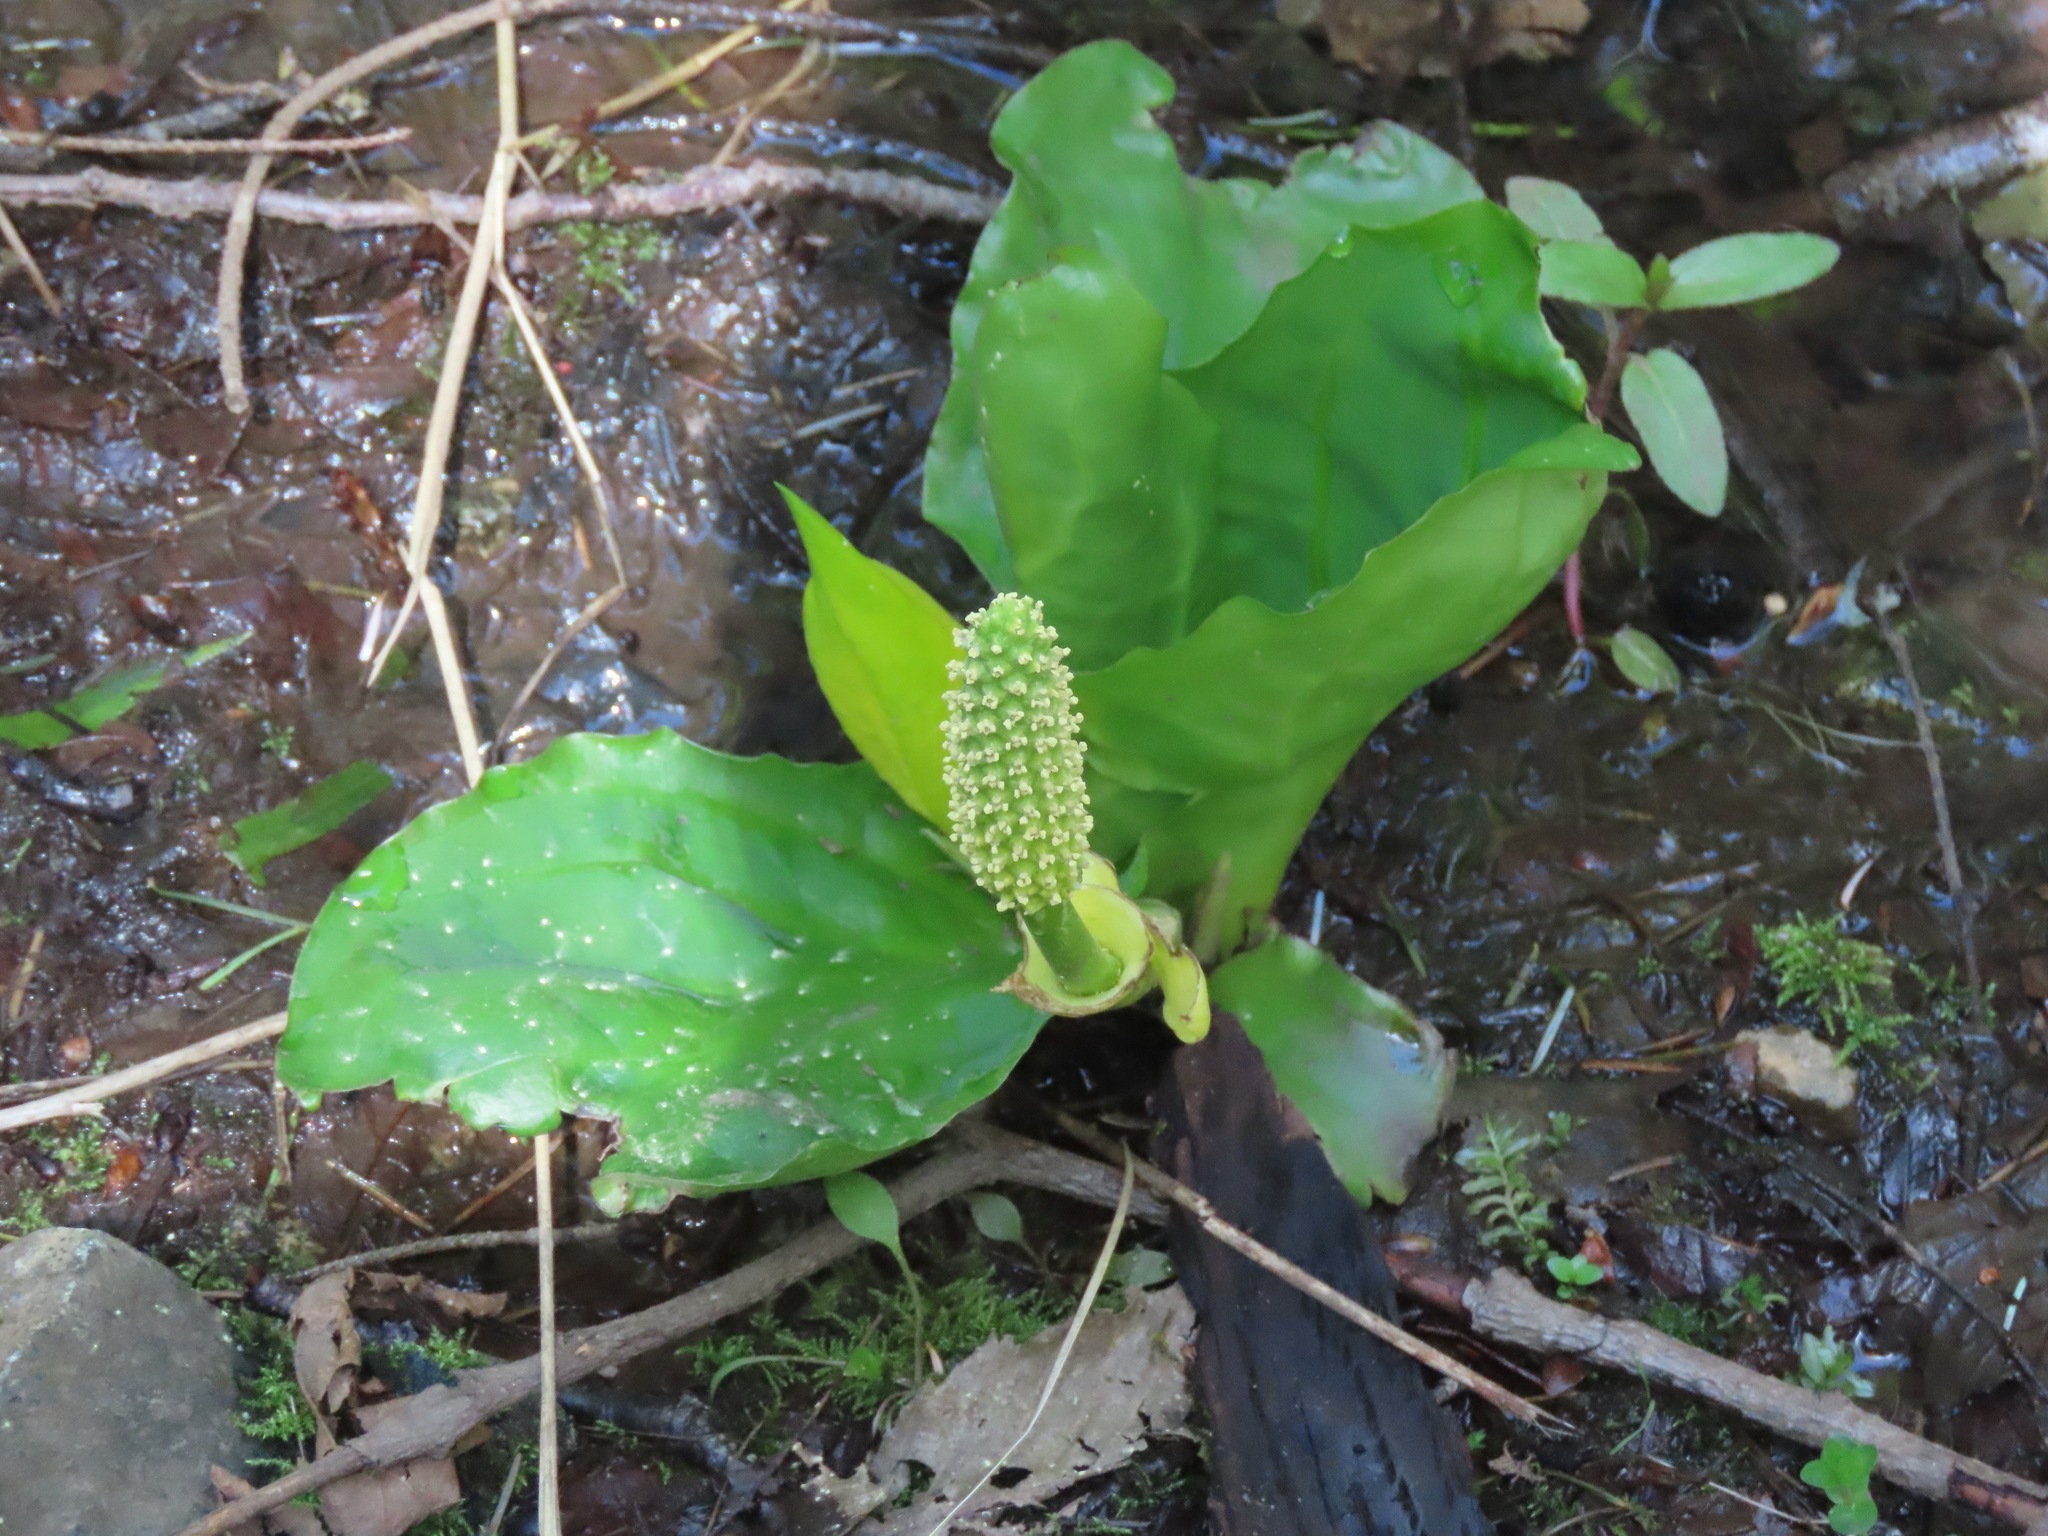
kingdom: Plantae
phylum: Tracheophyta
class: Liliopsida
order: Alismatales
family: Araceae
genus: Lysichiton
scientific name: Lysichiton americanus
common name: American skunk cabbage
